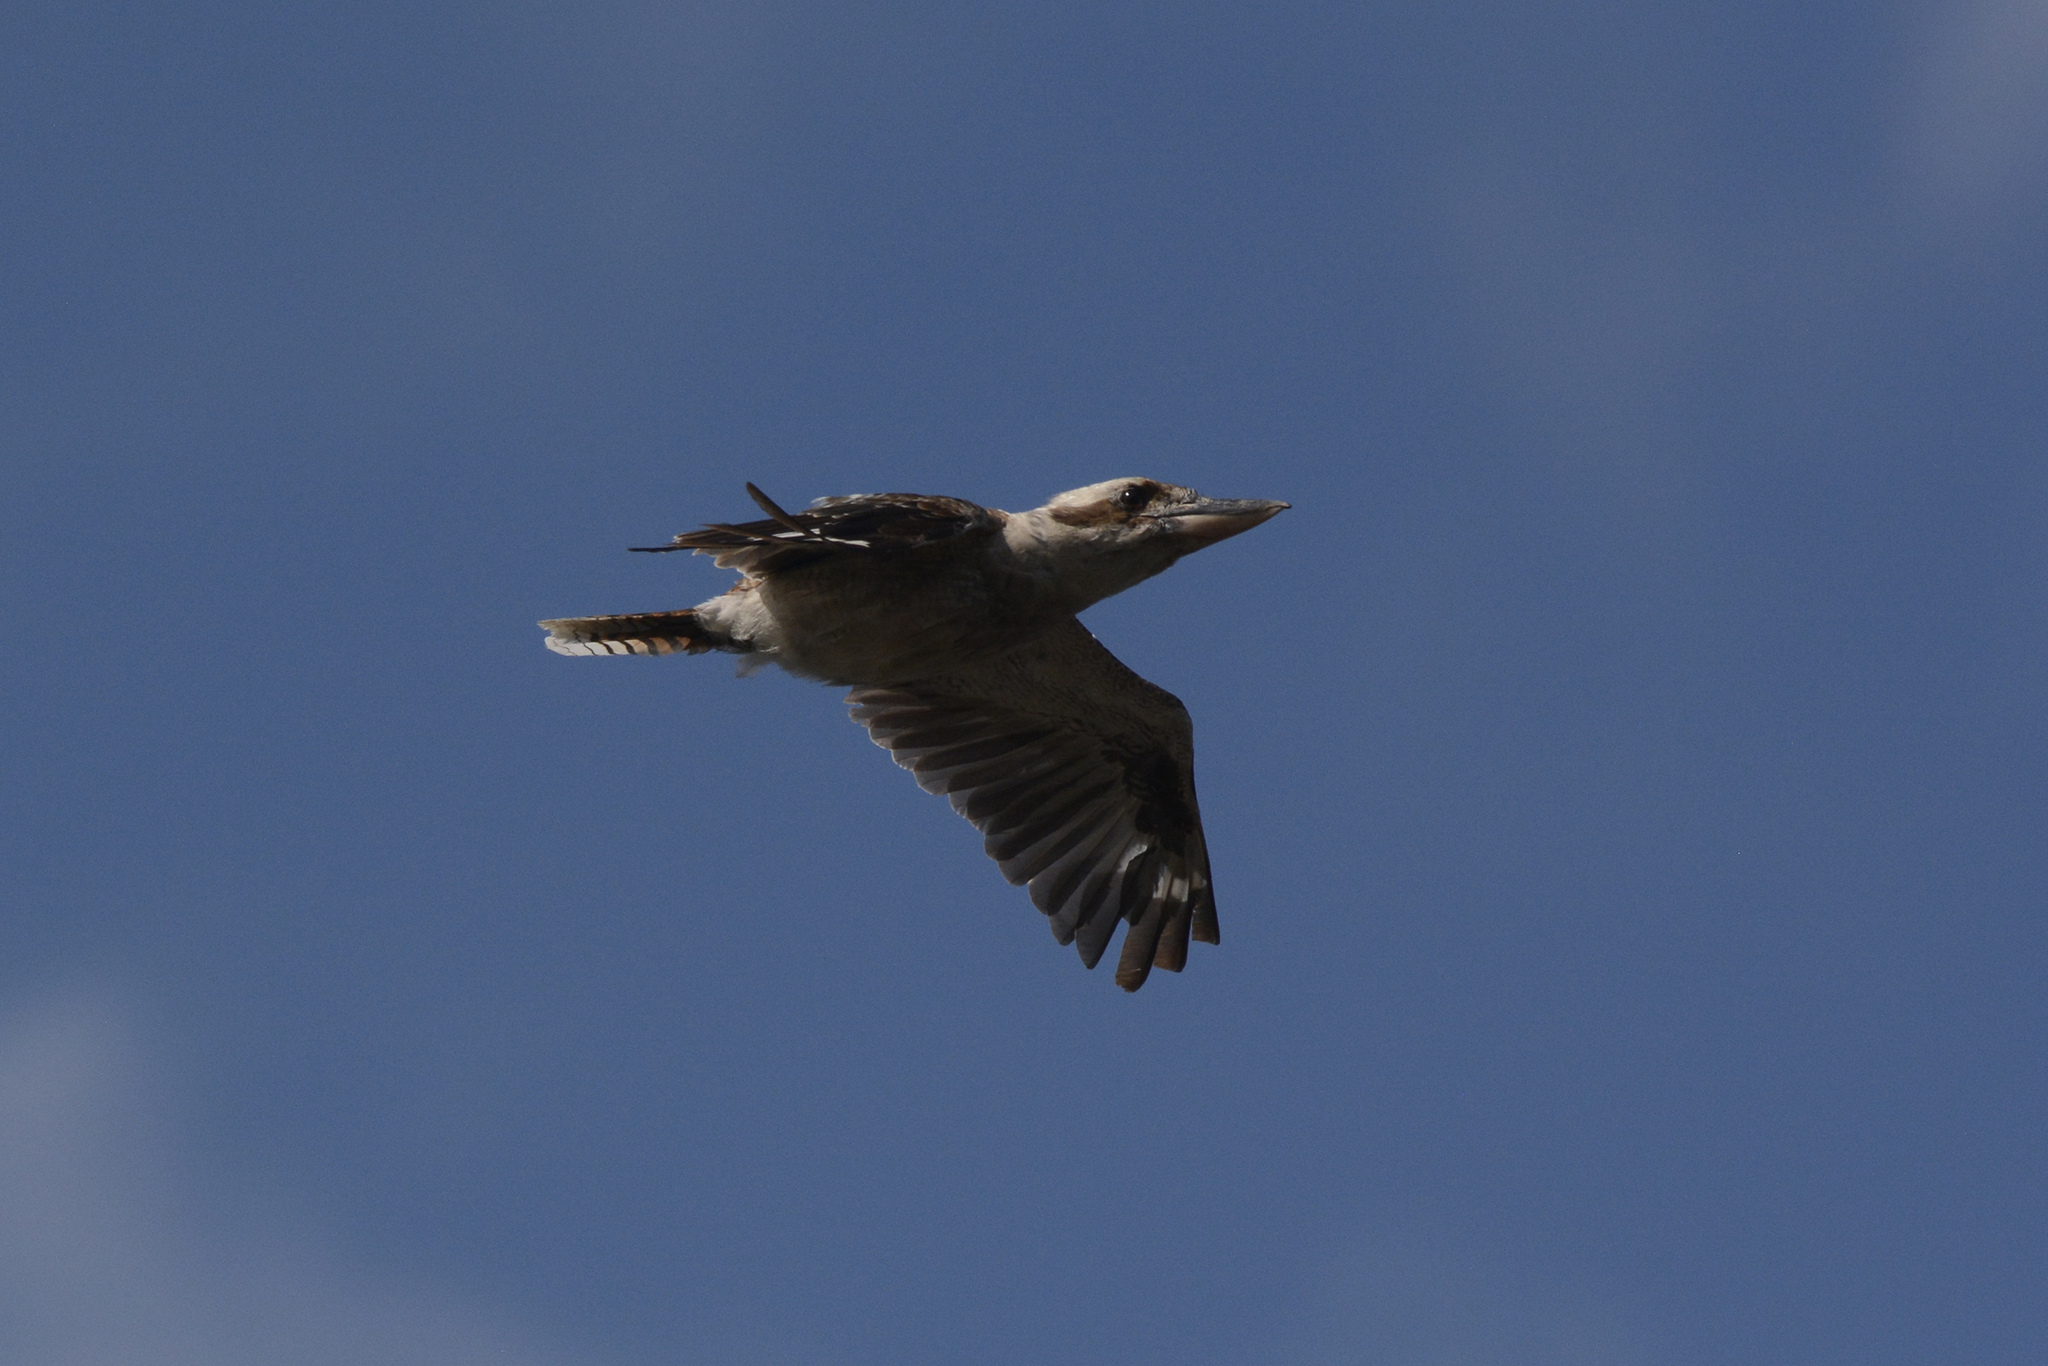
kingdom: Animalia
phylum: Chordata
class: Aves
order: Coraciiformes
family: Alcedinidae
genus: Dacelo
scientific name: Dacelo novaeguineae
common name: Laughing kookaburra
